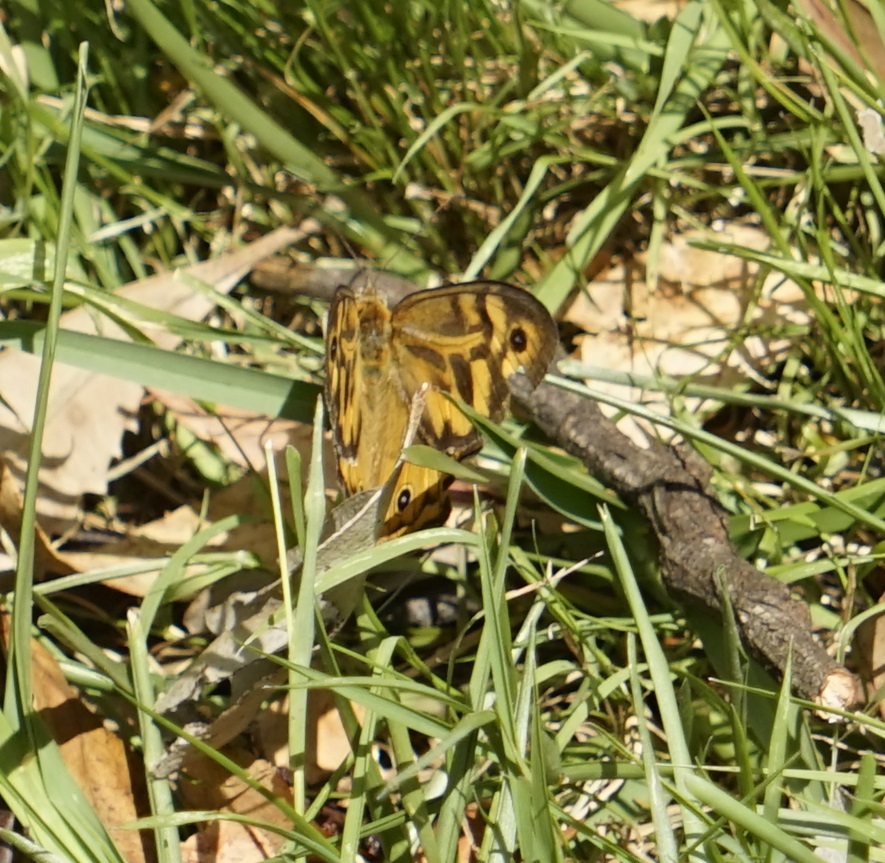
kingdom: Animalia
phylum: Arthropoda
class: Insecta
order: Lepidoptera
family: Nymphalidae
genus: Heteronympha
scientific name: Heteronympha merope
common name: Common brown
